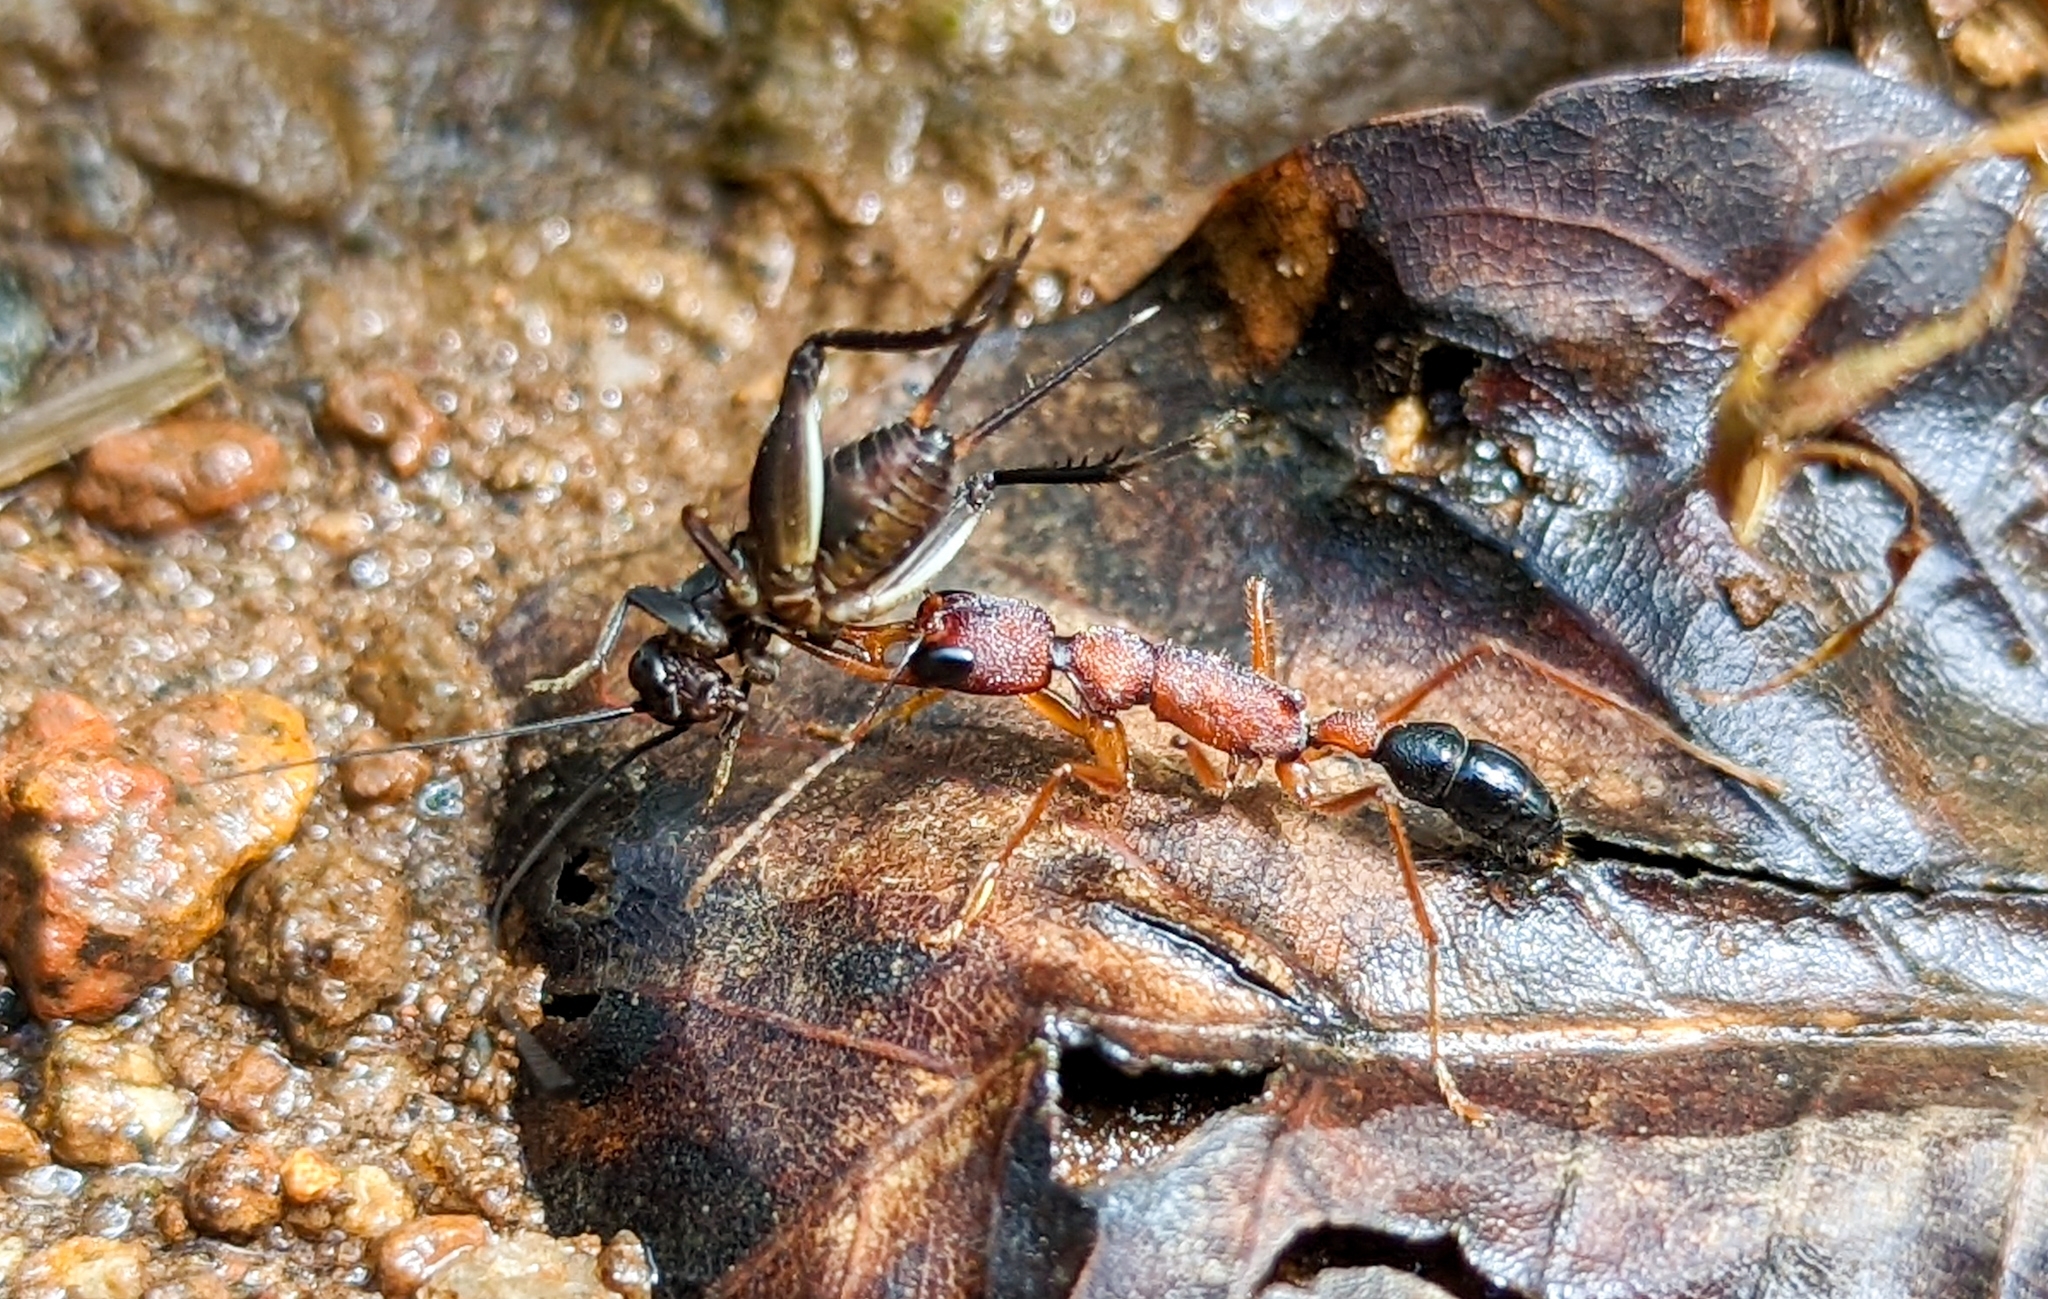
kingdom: Animalia
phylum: Arthropoda
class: Insecta
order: Hymenoptera
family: Formicidae
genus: Harpegnathos
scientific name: Harpegnathos saltator
